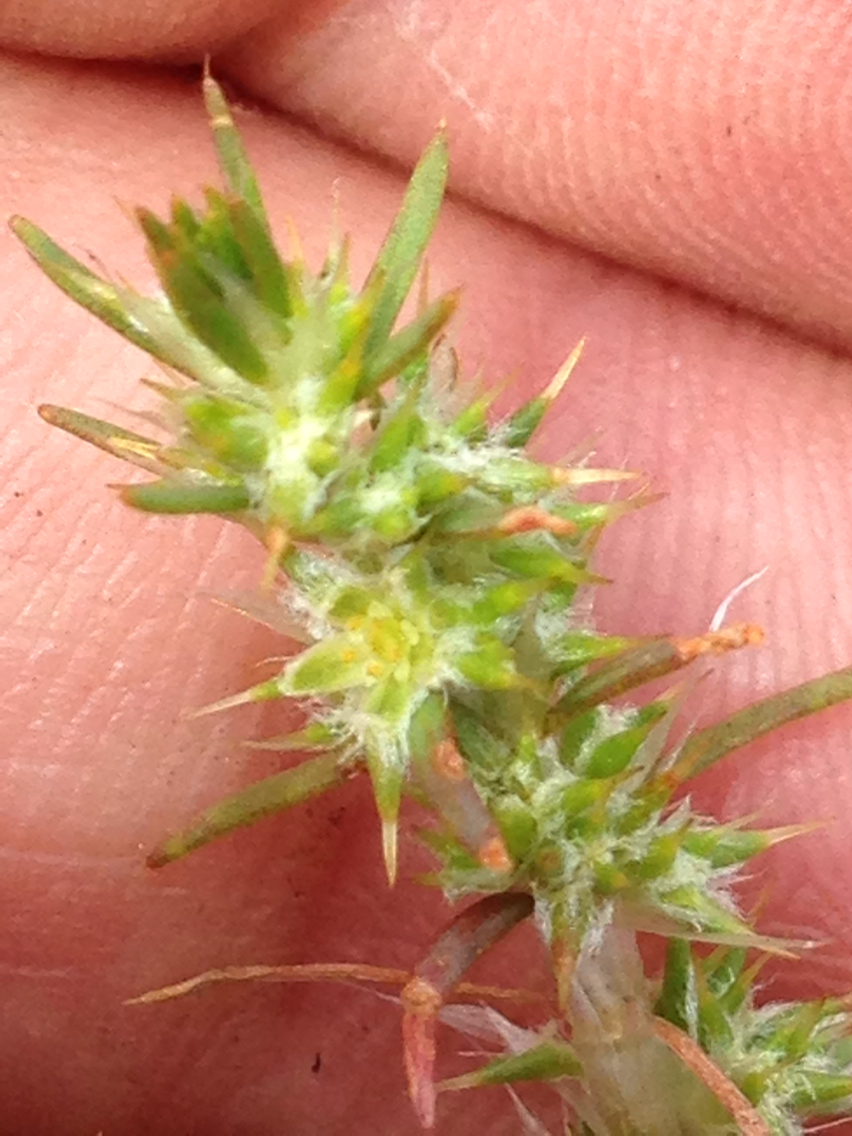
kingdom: Plantae
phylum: Tracheophyta
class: Magnoliopsida
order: Caryophyllales
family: Caryophyllaceae
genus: Cardionema
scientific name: Cardionema ramosissima
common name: Sandcarpet
